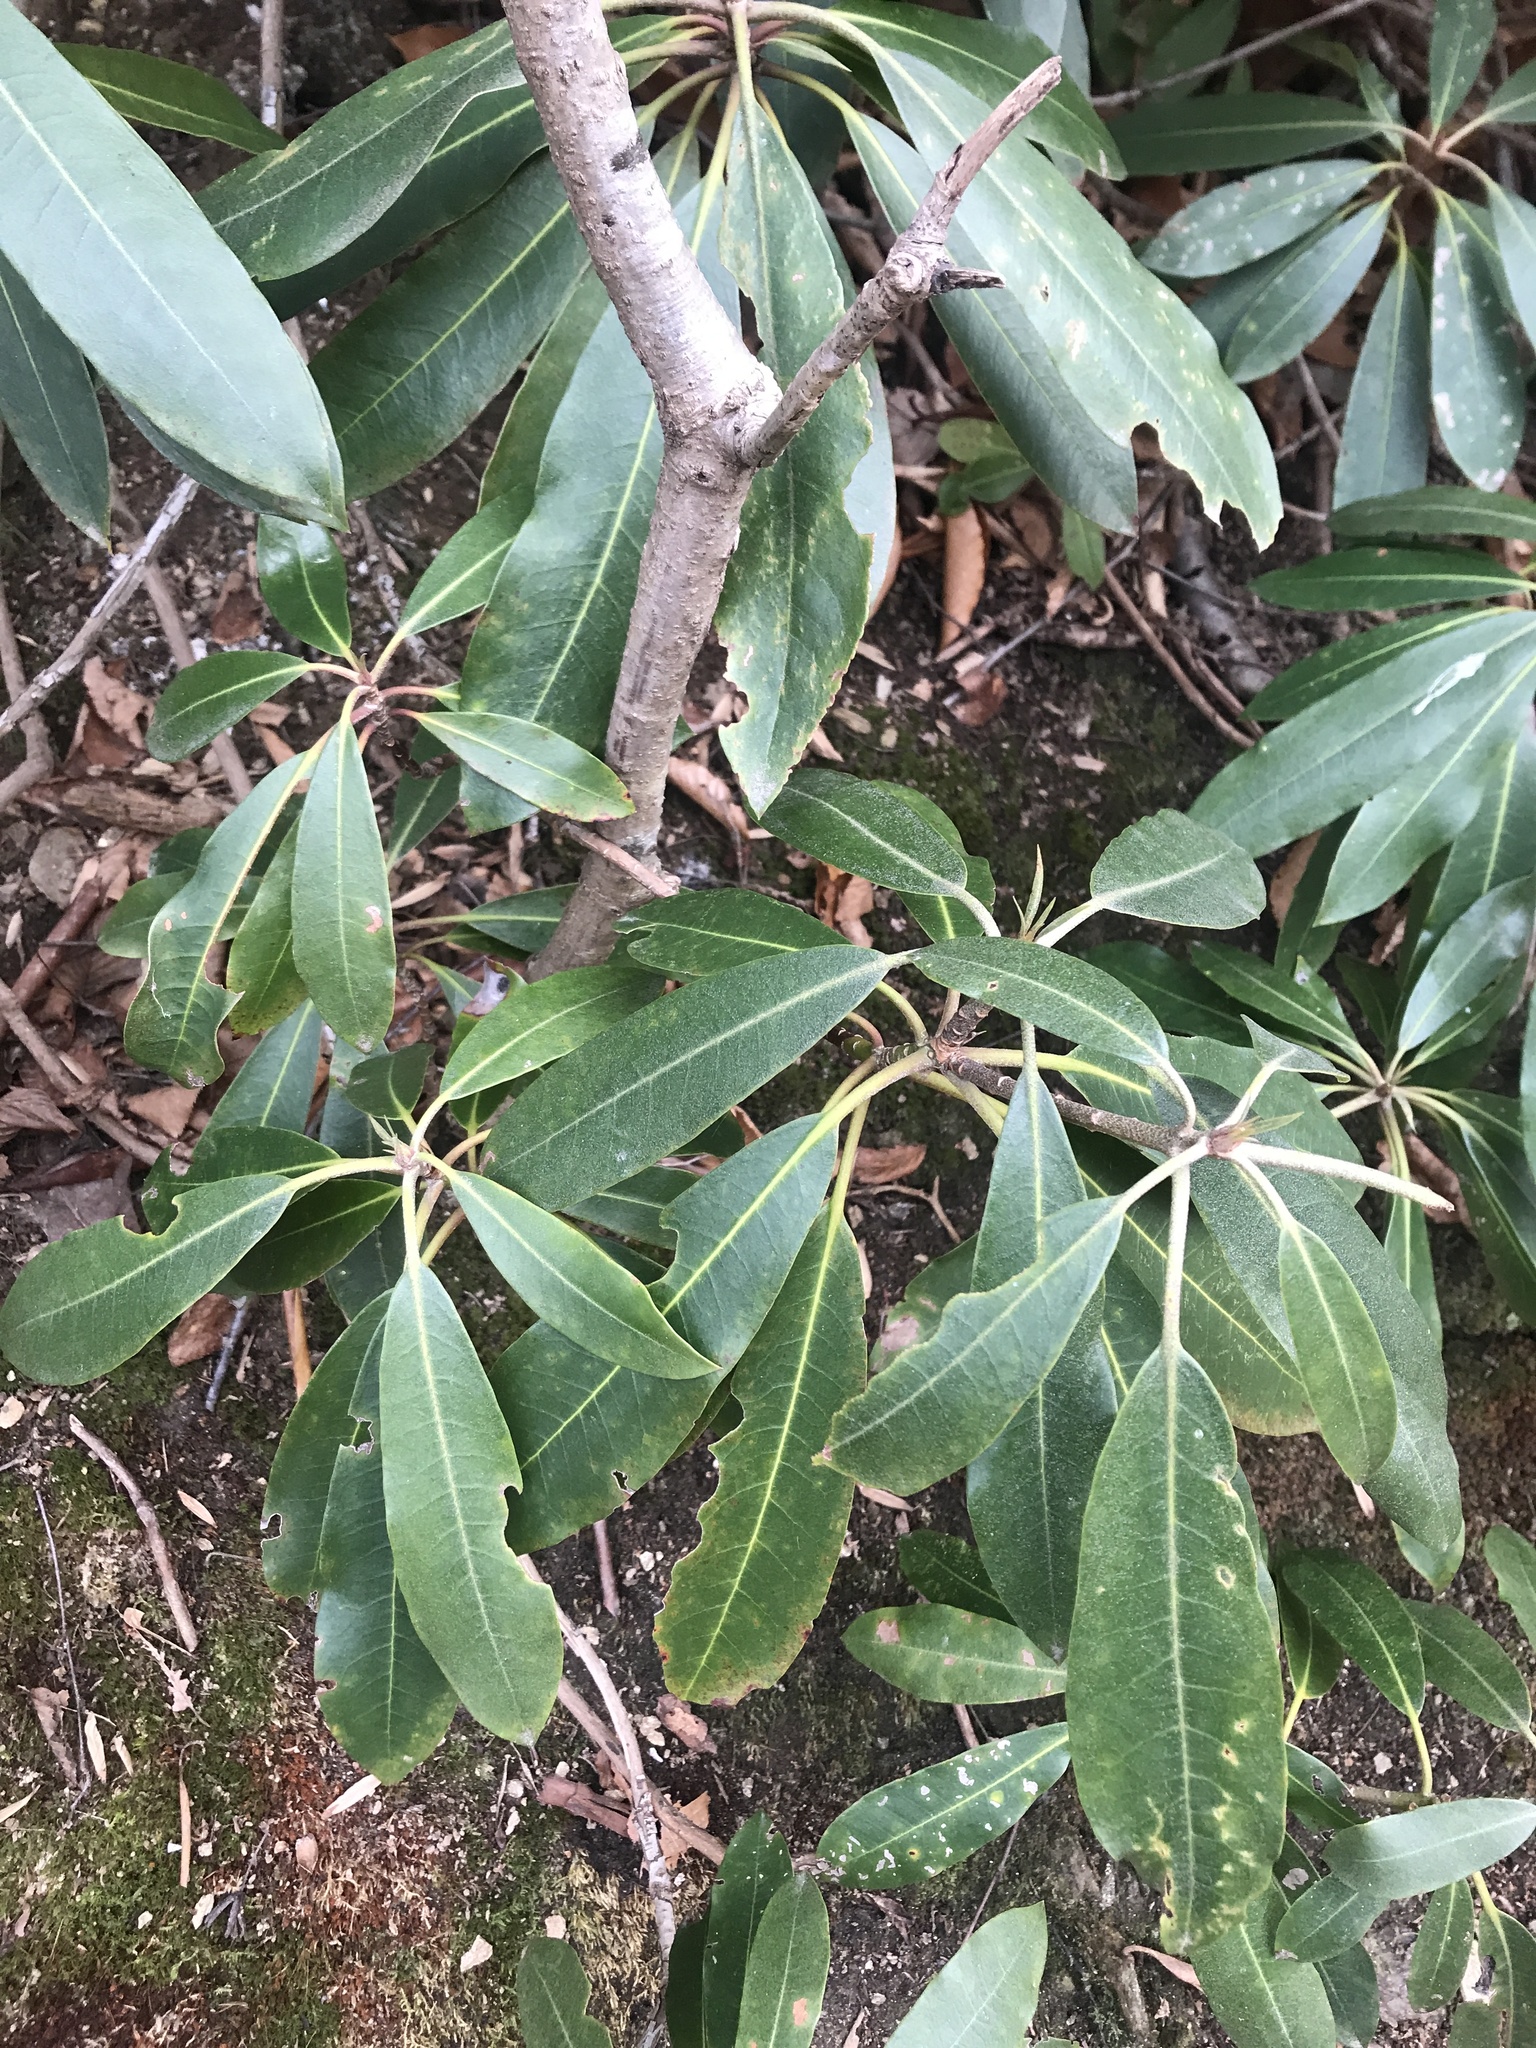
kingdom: Plantae
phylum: Tracheophyta
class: Magnoliopsida
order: Ericales
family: Ericaceae
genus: Rhododendron
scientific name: Rhododendron maximum
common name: Great rhododendron
